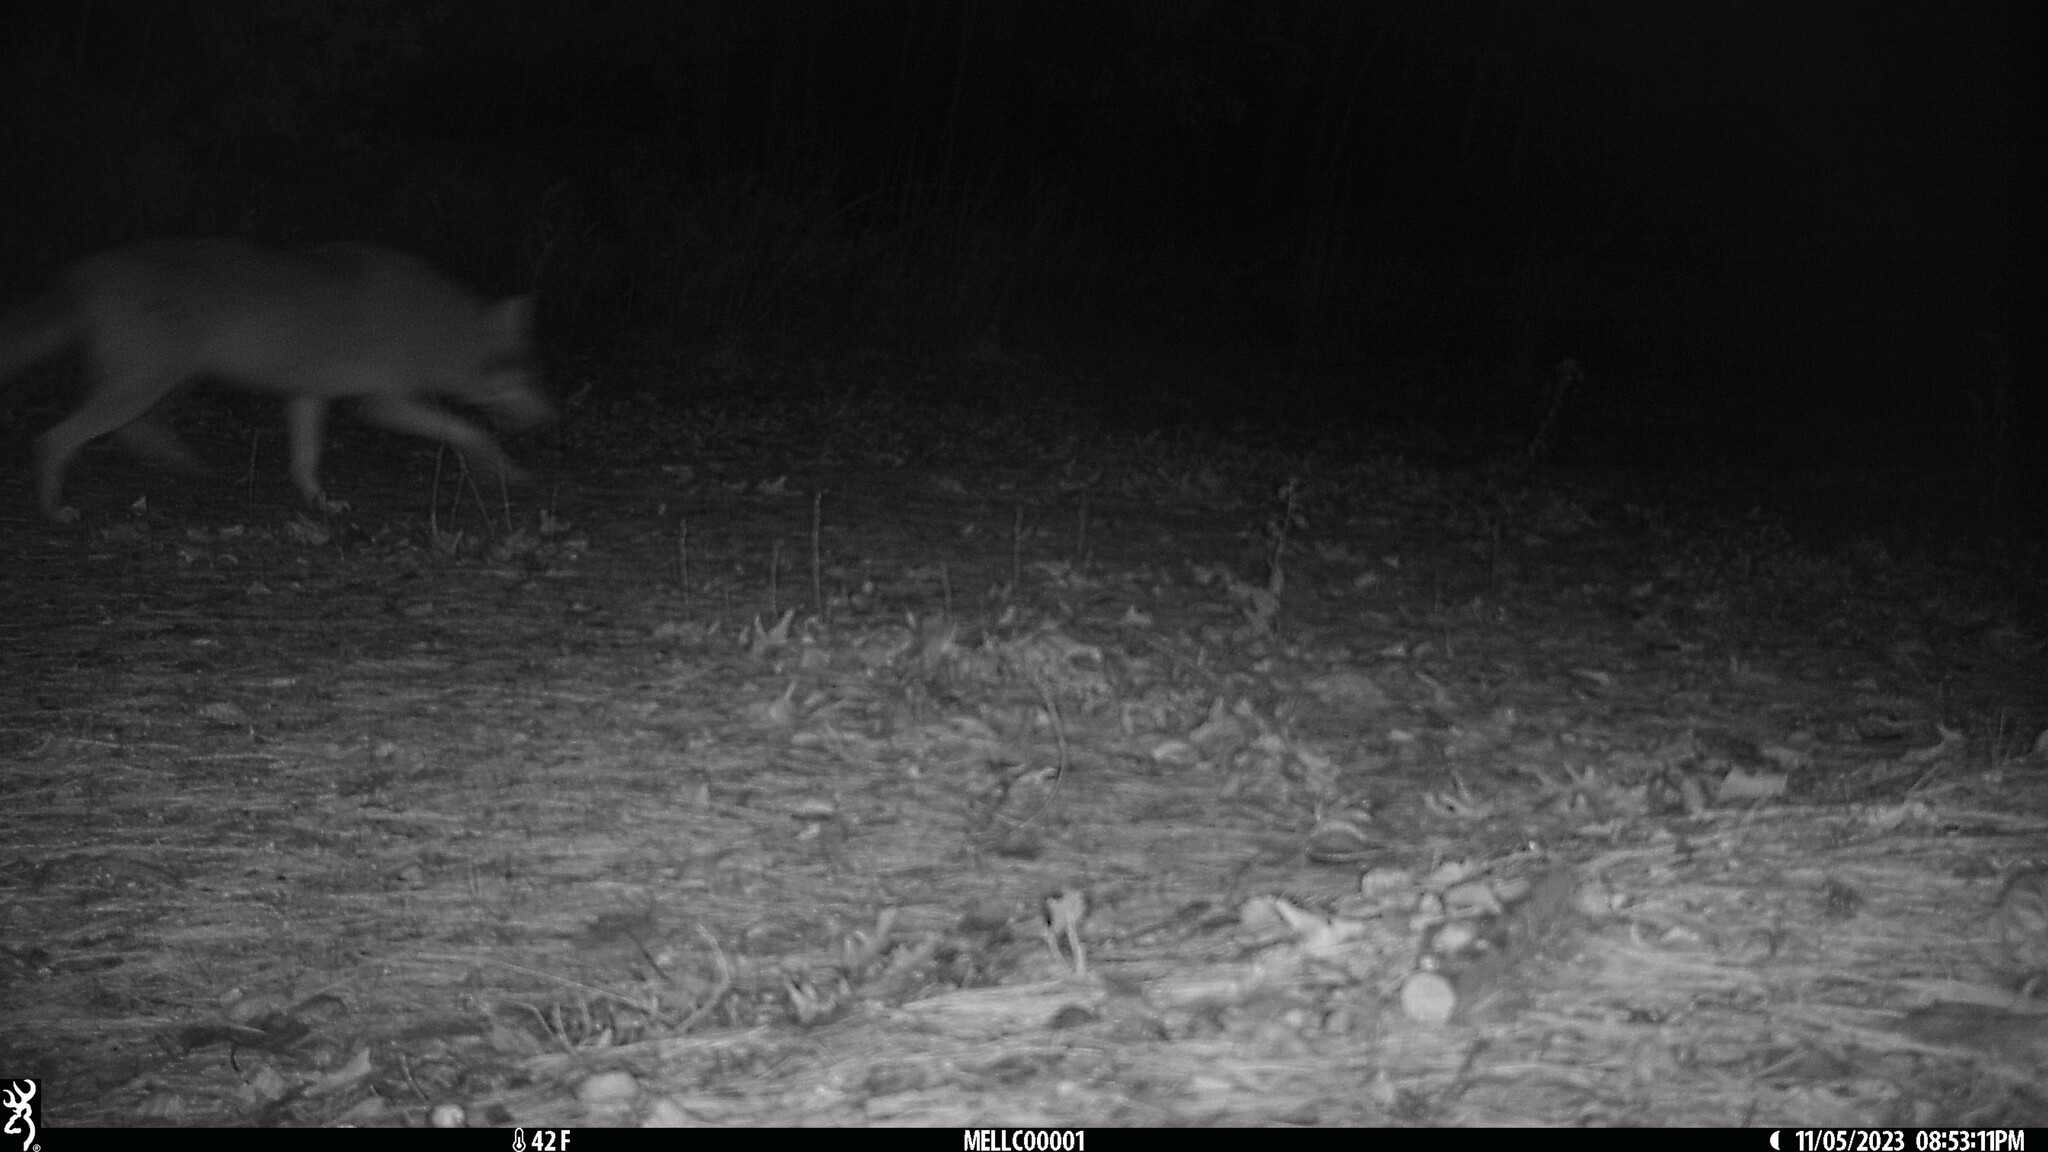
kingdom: Animalia
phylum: Chordata
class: Mammalia
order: Carnivora
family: Canidae
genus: Canis
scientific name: Canis latrans
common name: Coyote
